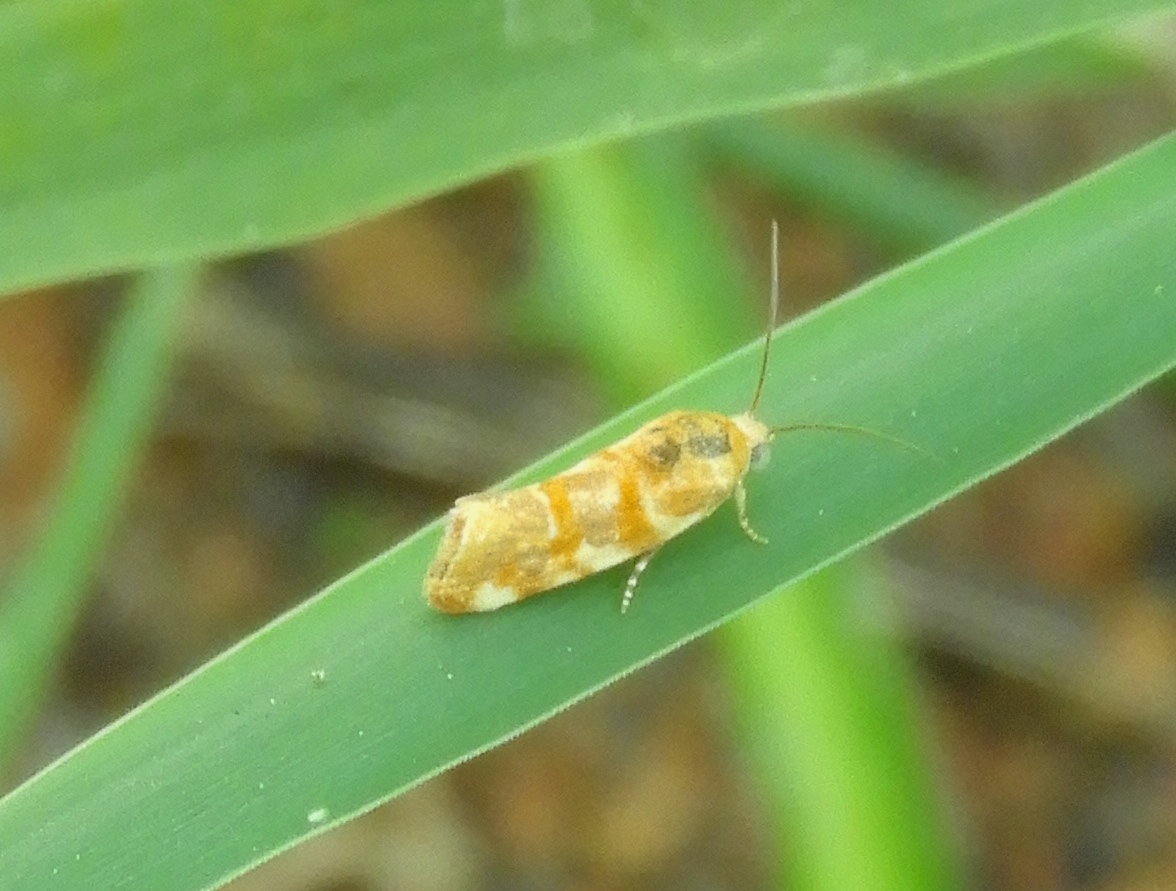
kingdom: Animalia
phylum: Arthropoda
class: Insecta
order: Lepidoptera
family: Noctuidae
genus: Spragueia
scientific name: Spragueia
